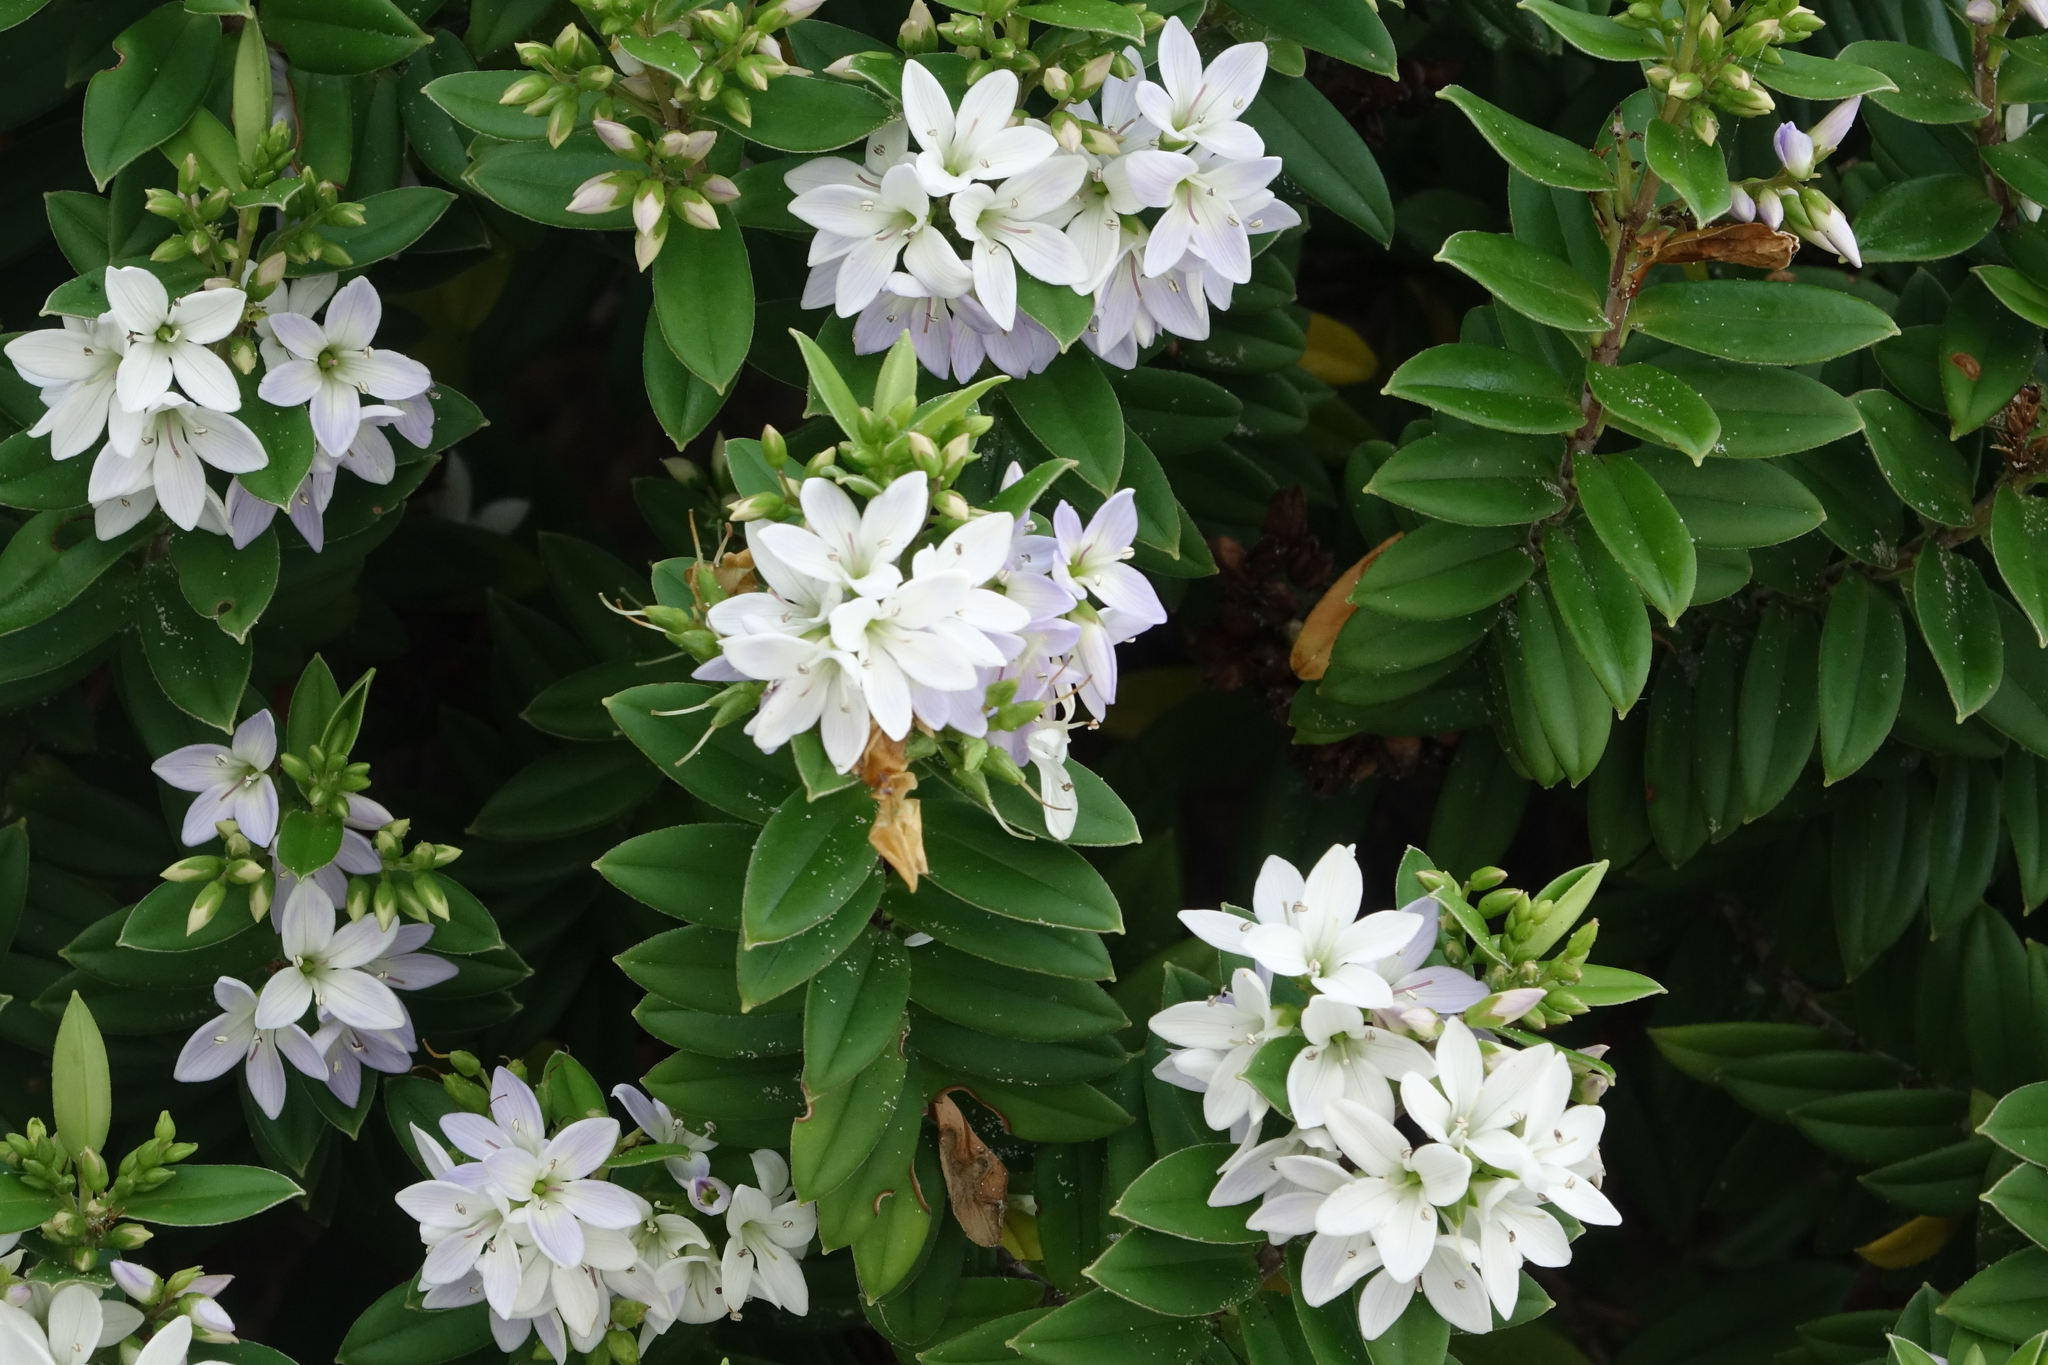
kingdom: Plantae
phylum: Tracheophyta
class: Magnoliopsida
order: Lamiales
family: Plantaginaceae
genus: Veronica
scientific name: Veronica elliptica
